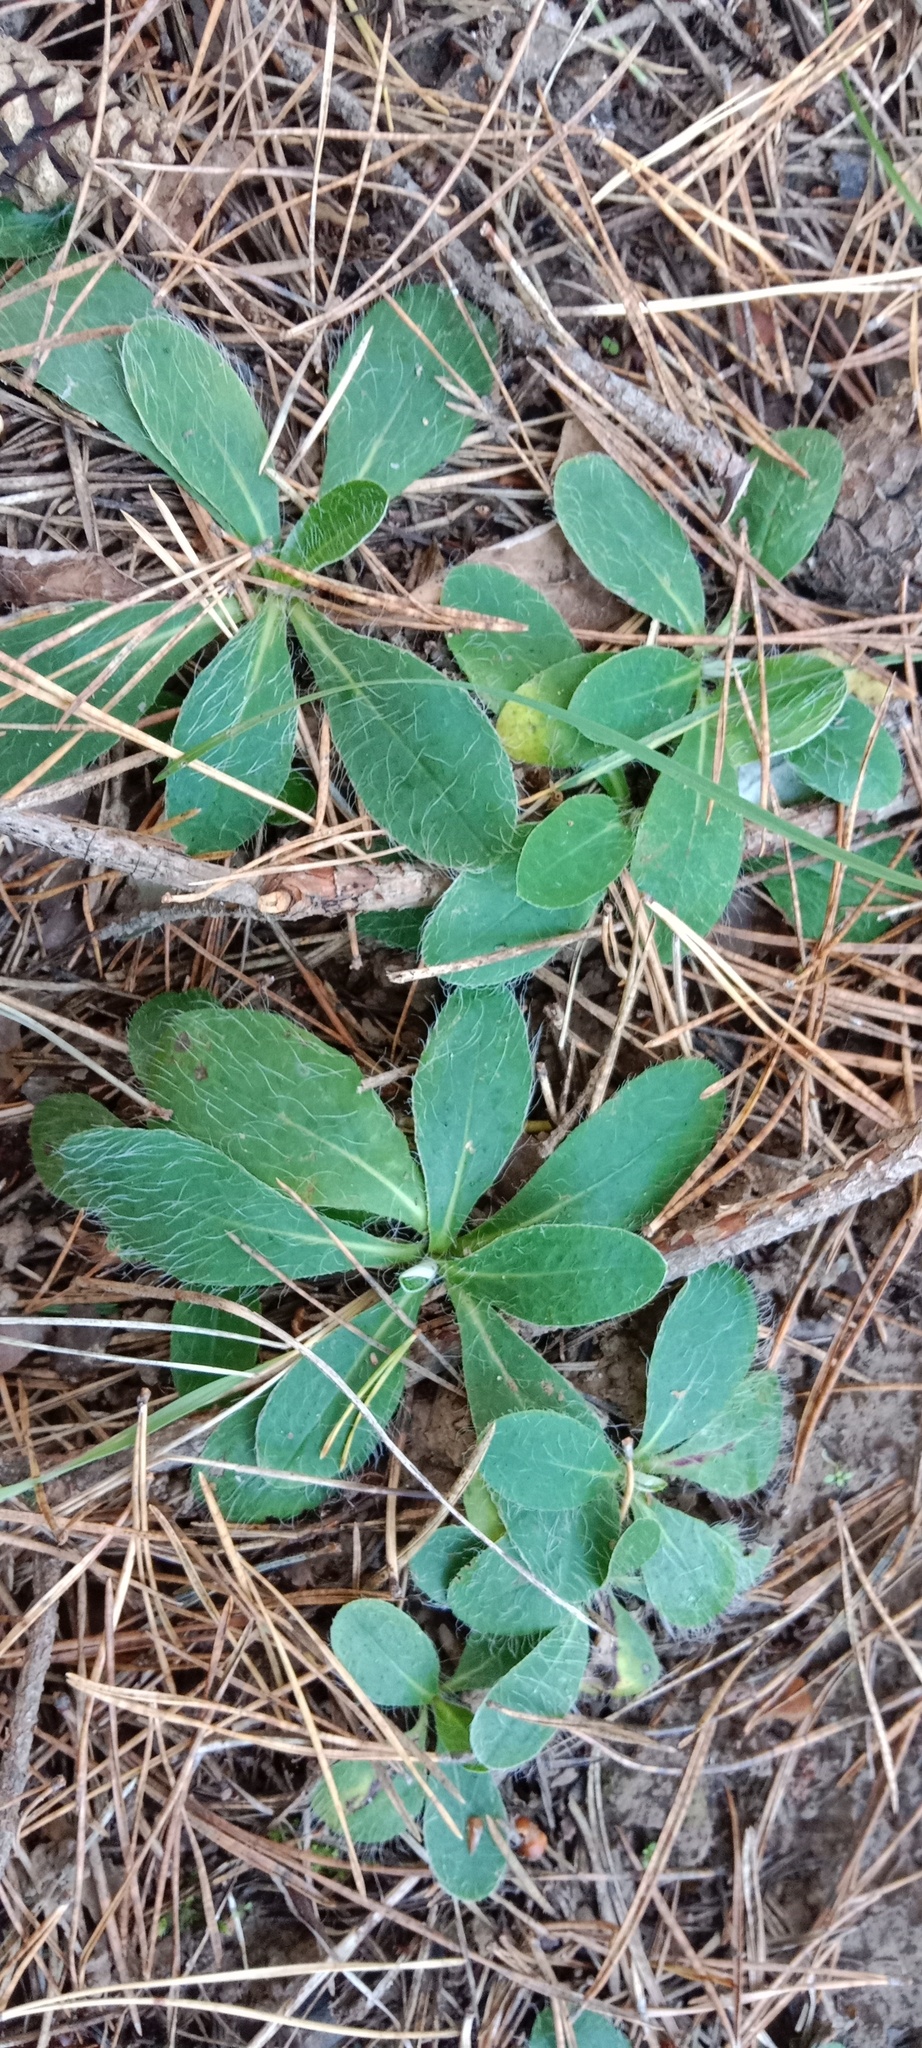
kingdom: Plantae
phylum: Tracheophyta
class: Magnoliopsida
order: Asterales
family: Asteraceae
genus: Pilosella
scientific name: Pilosella officinarum
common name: Mouse-ear hawkweed
